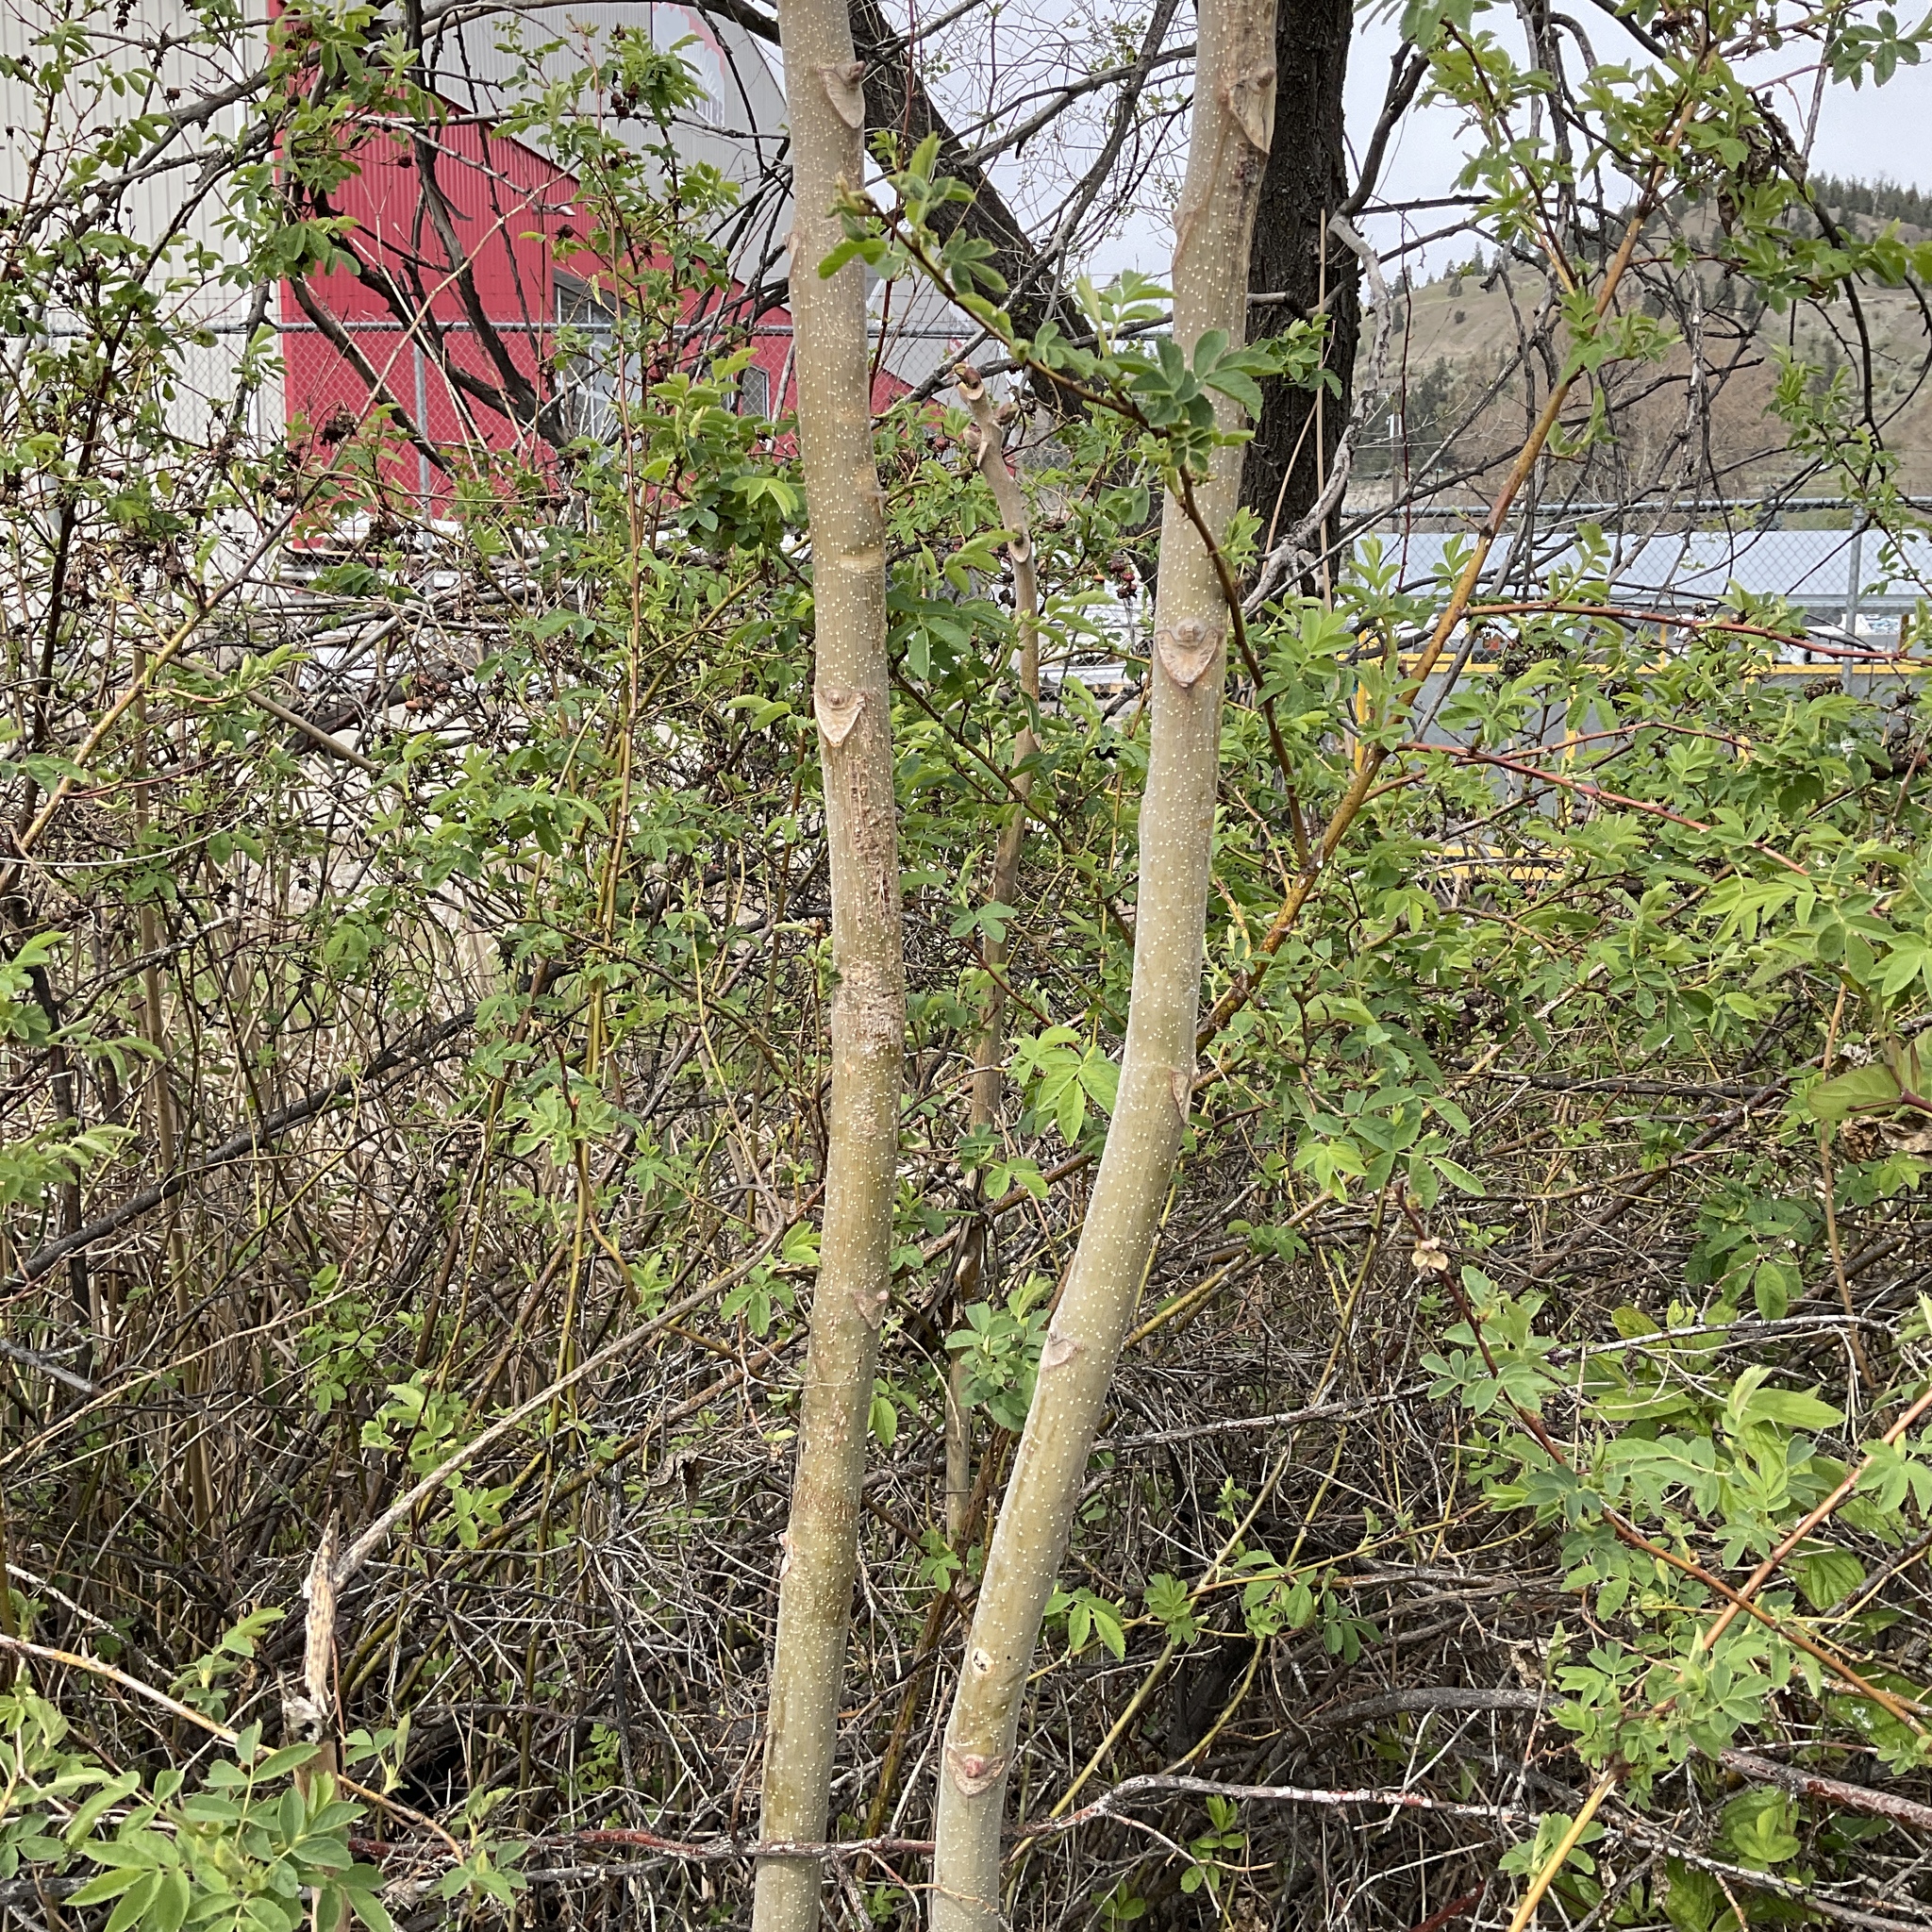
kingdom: Plantae
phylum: Tracheophyta
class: Magnoliopsida
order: Sapindales
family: Simaroubaceae
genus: Ailanthus
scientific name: Ailanthus altissima
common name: Tree-of-heaven
